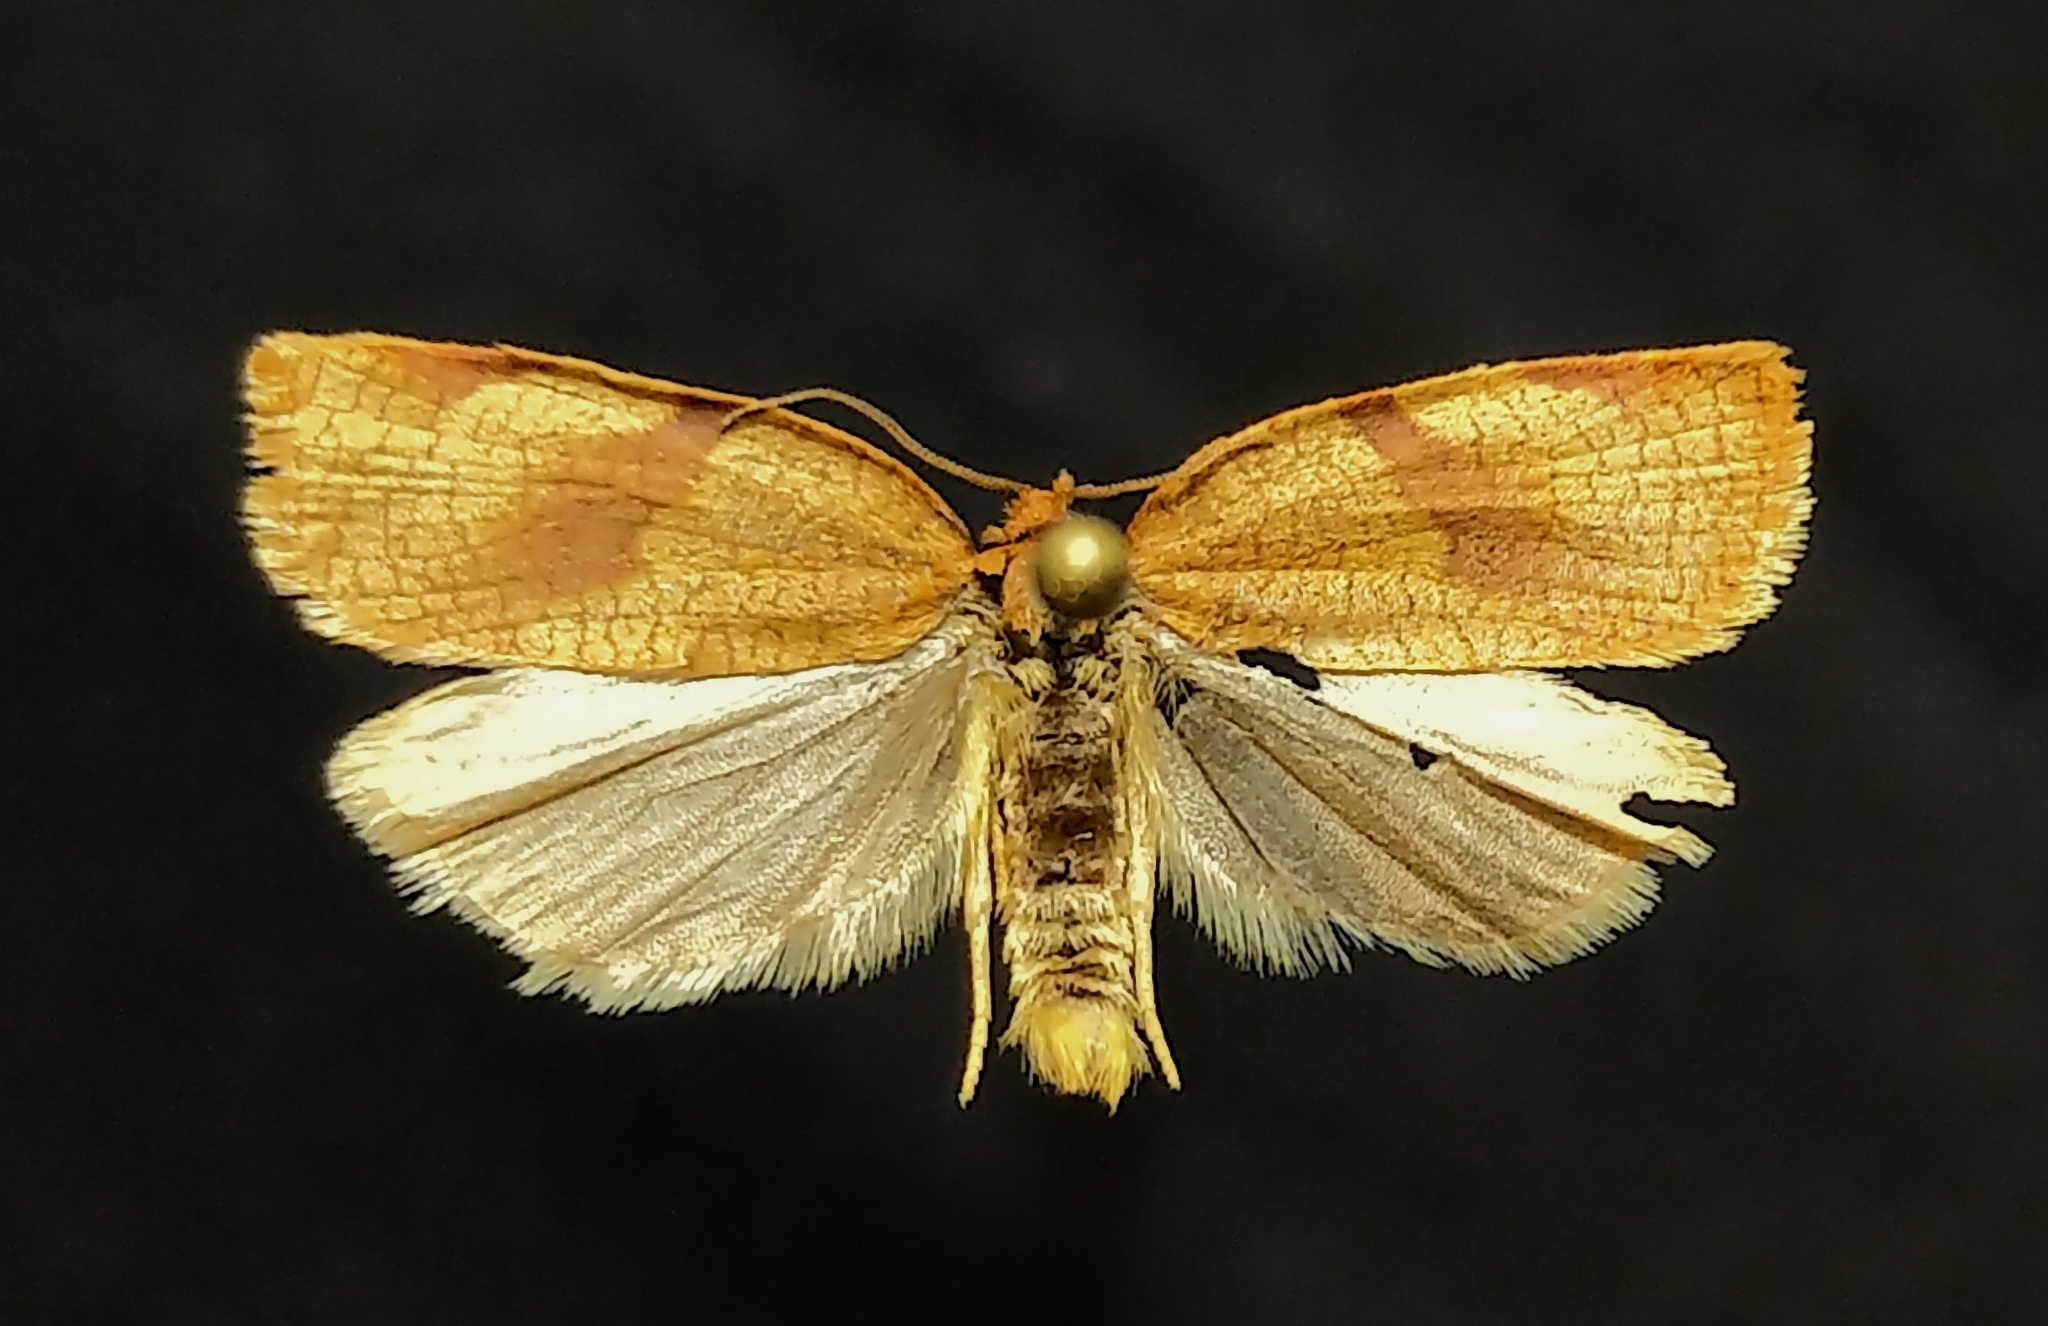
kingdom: Animalia
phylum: Arthropoda
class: Insecta
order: Lepidoptera
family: Tortricidae
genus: Aphelia
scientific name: Aphelia alleniana
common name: Allen's tortrix moth
